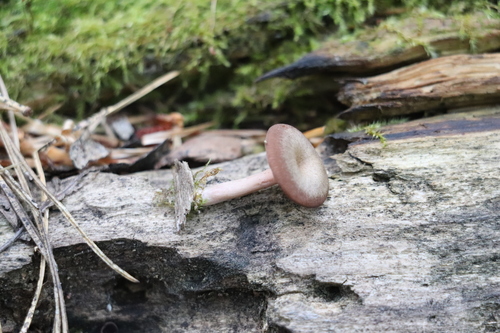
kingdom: Fungi
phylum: Basidiomycota
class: Agaricomycetes
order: Agaricales
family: Hygrophoraceae
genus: Arrhenia
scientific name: Arrhenia
